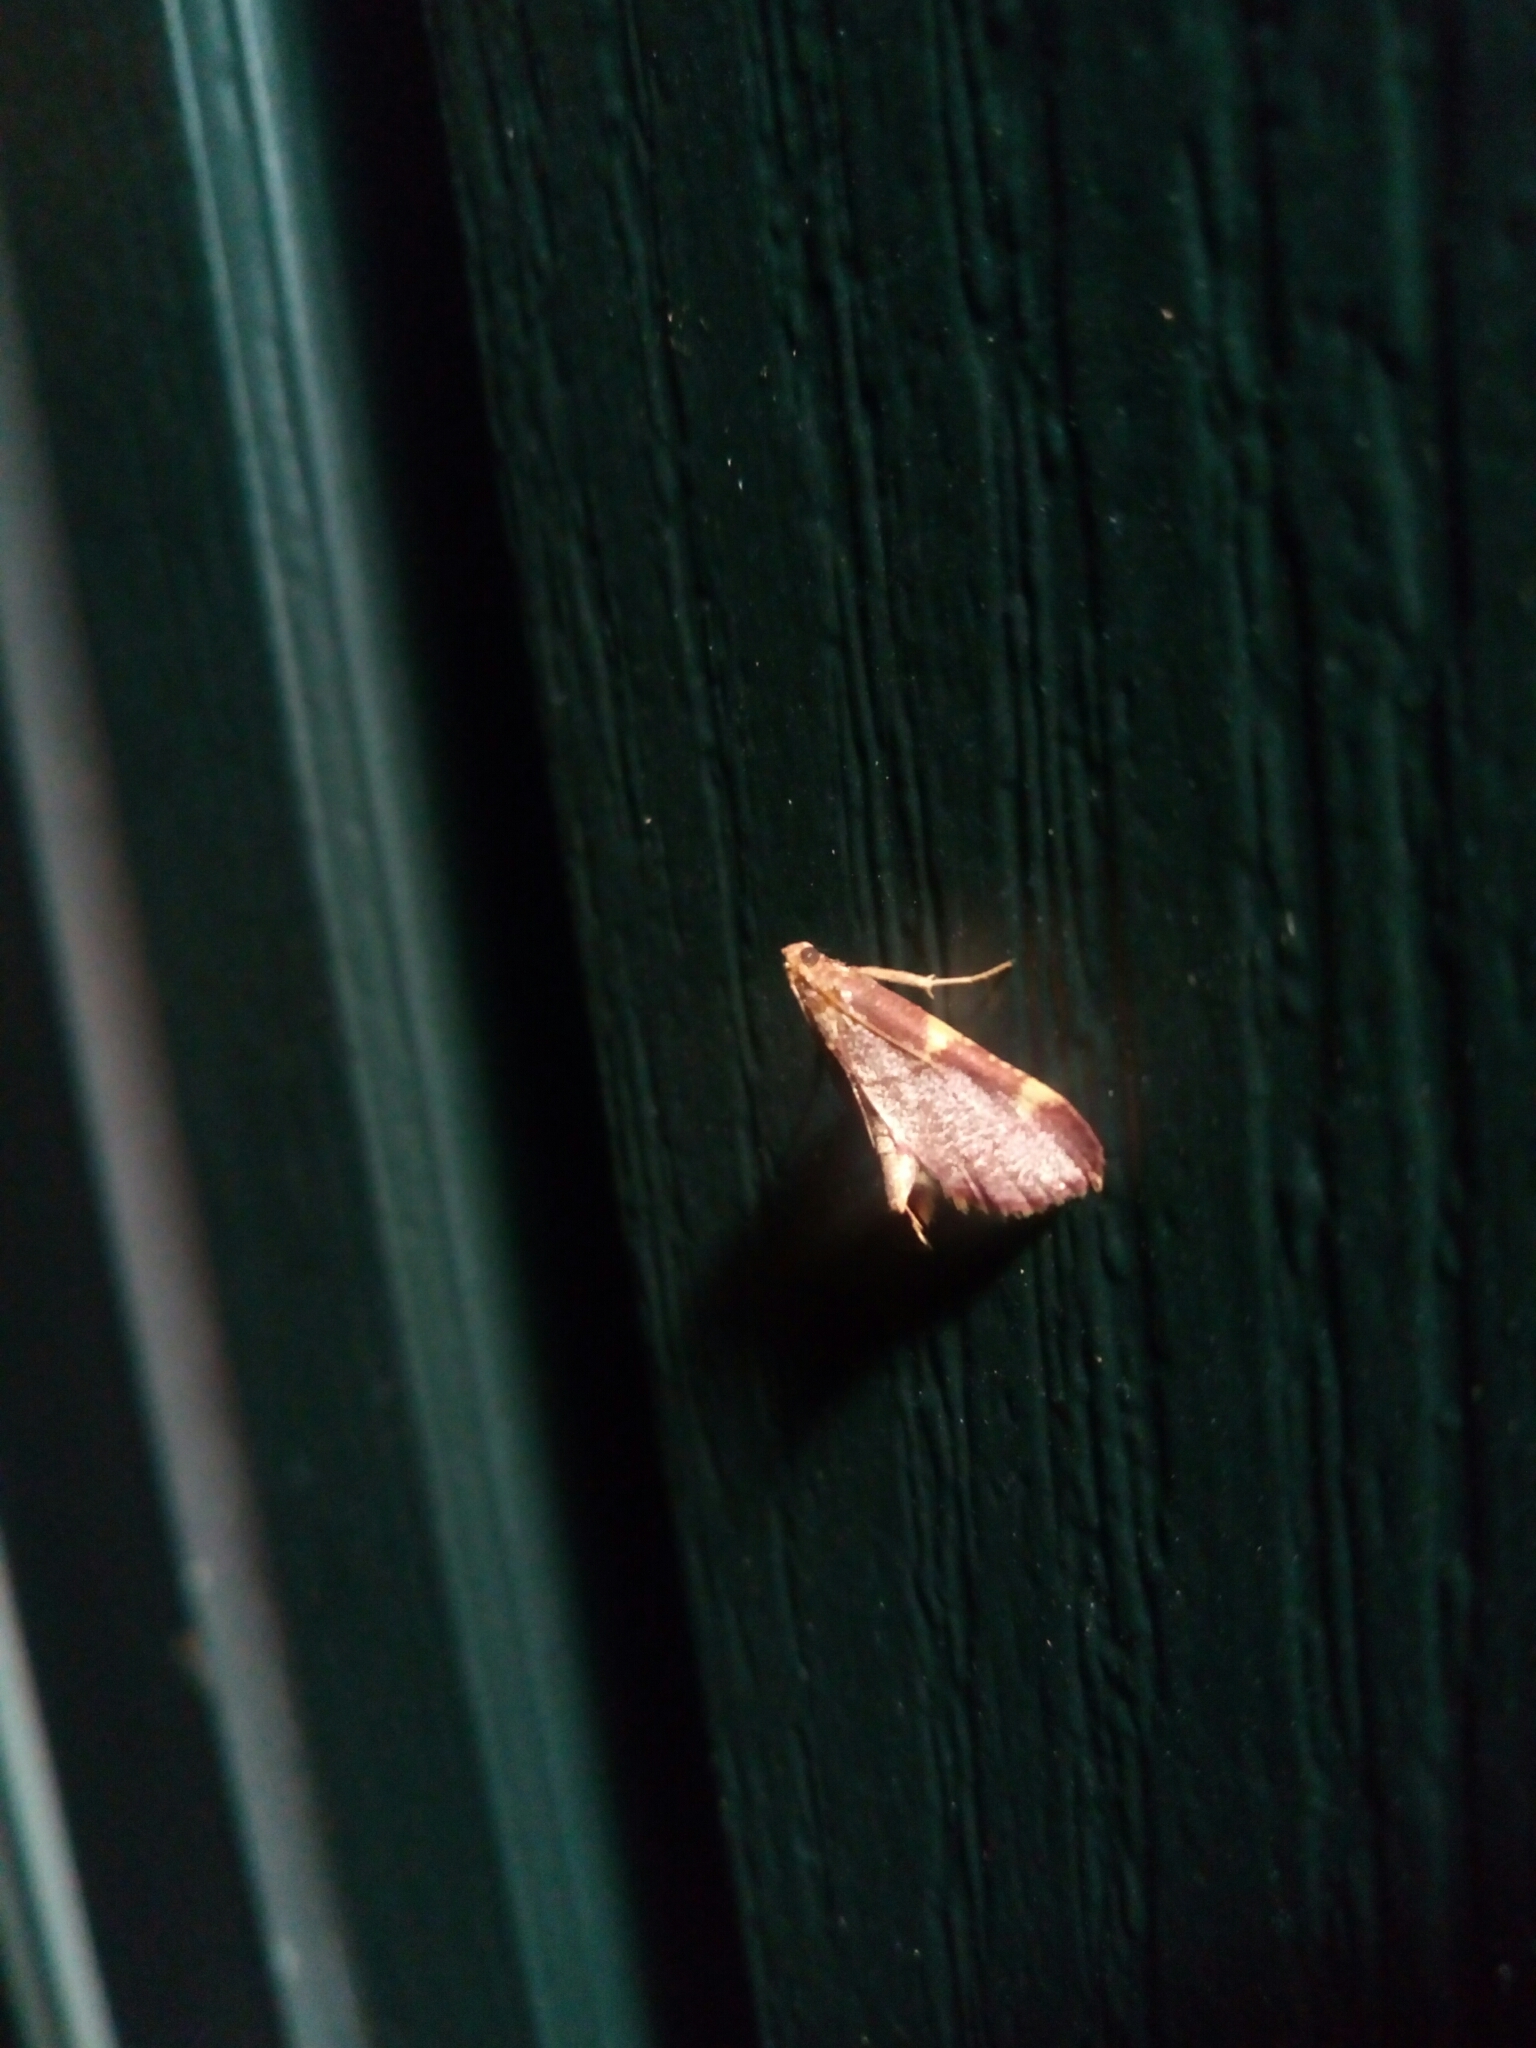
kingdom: Animalia
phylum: Arthropoda
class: Insecta
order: Lepidoptera
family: Pyralidae
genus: Hypsopygia
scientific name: Hypsopygia olinalis
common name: Yellow-fringed dolichomia moth
